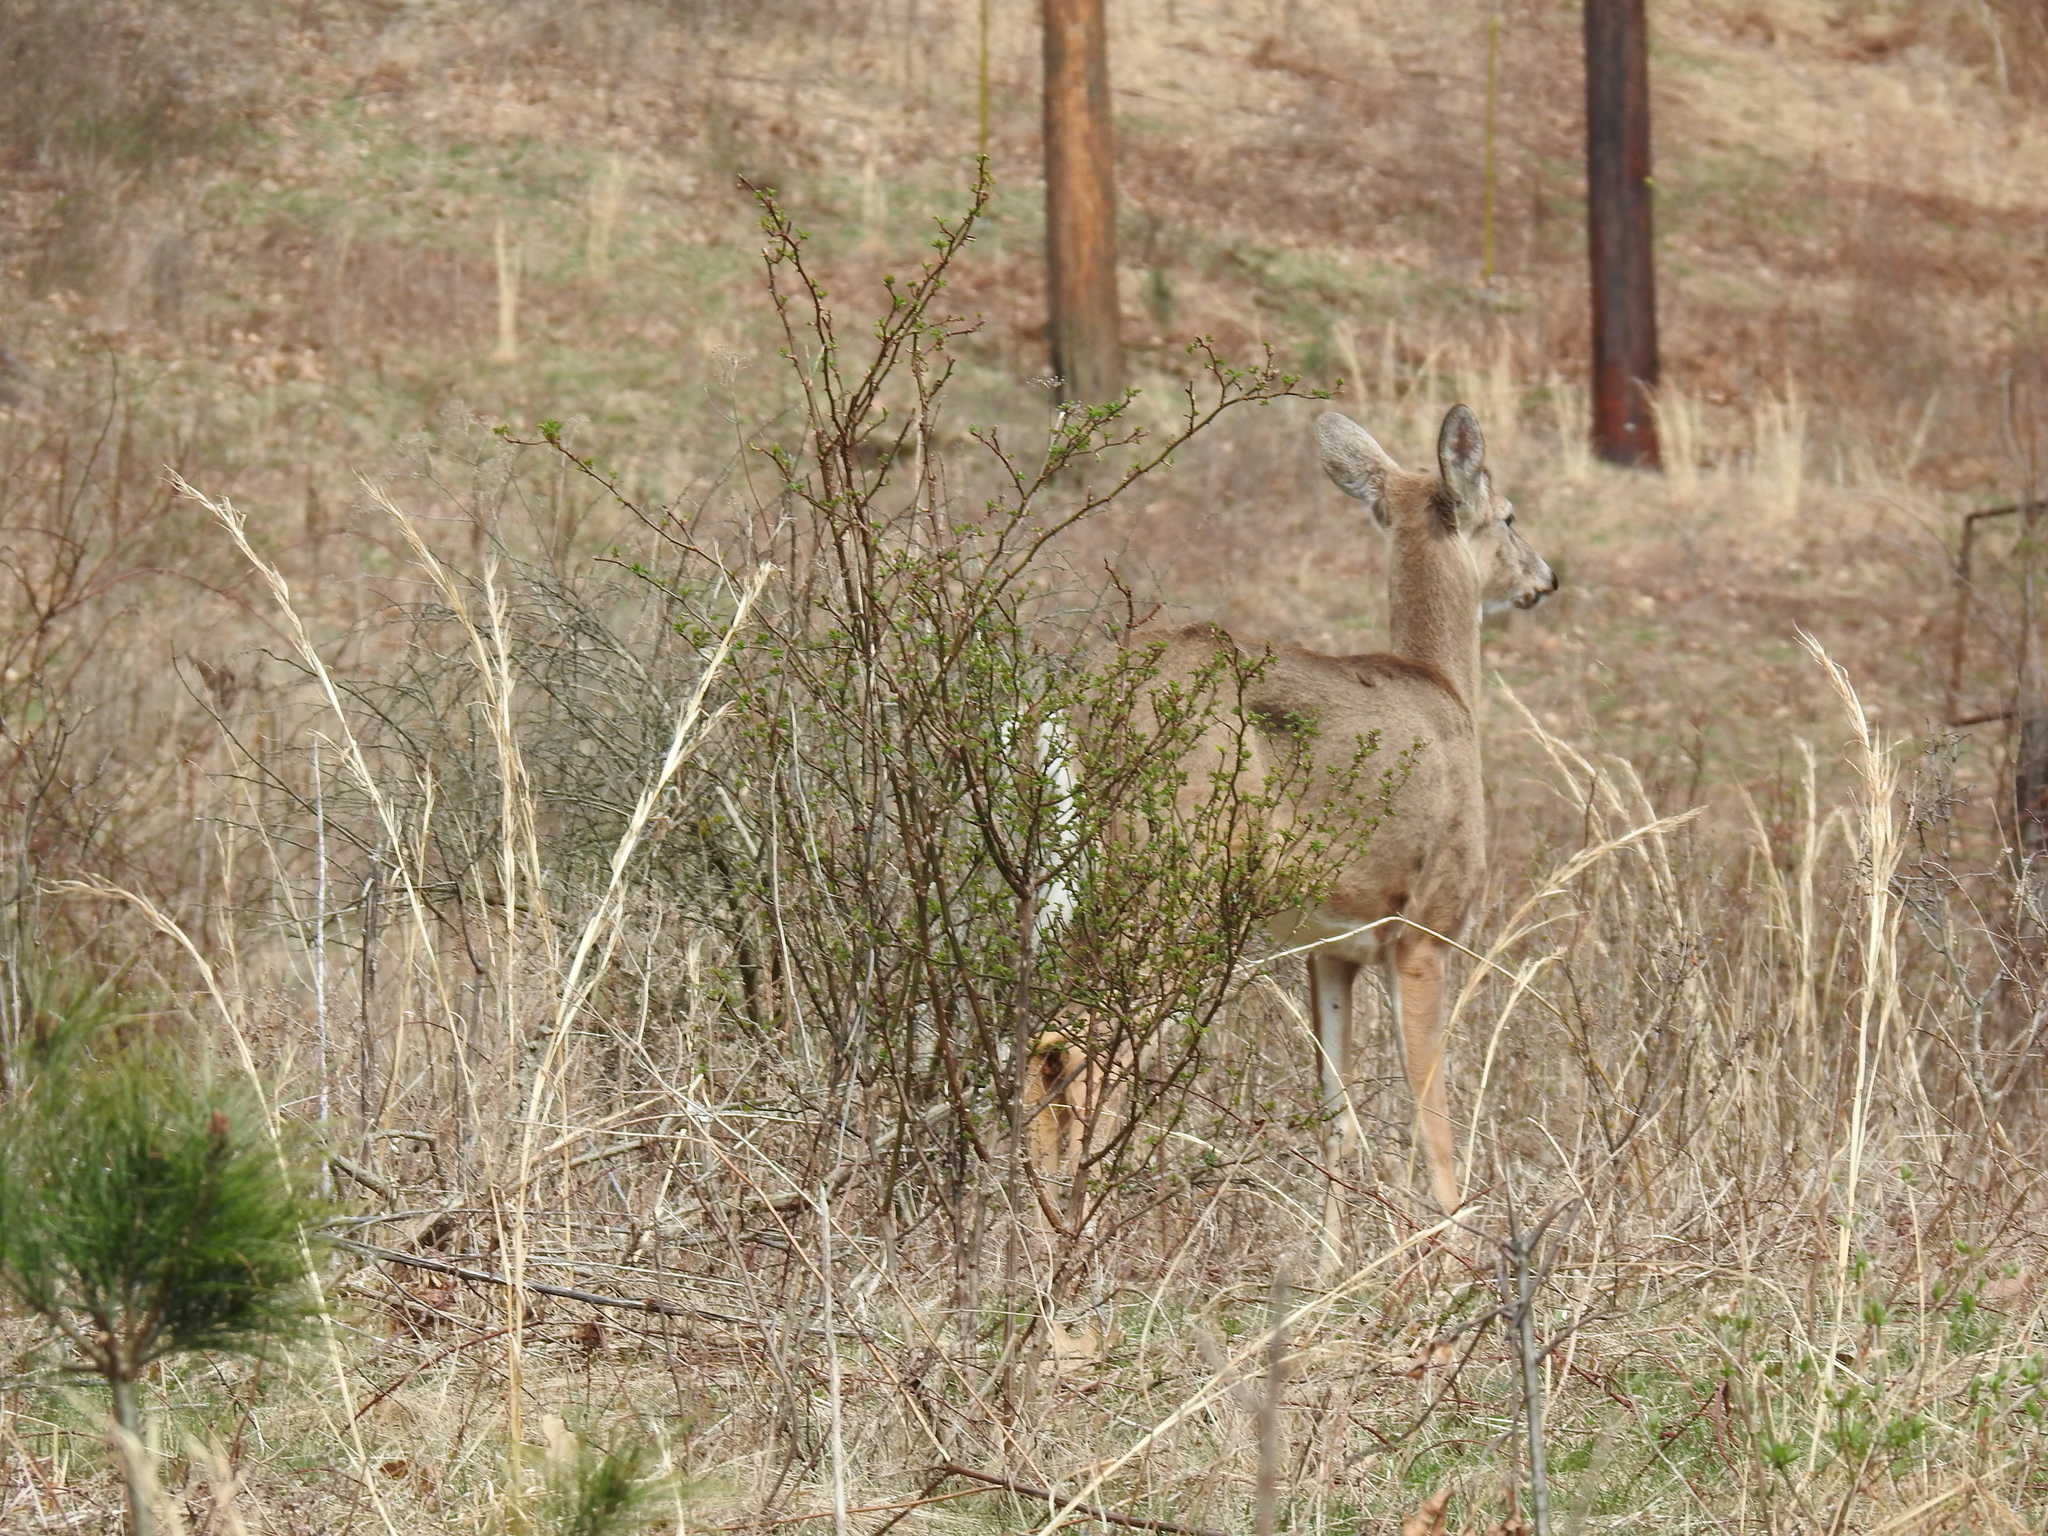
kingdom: Animalia
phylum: Chordata
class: Mammalia
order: Artiodactyla
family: Cervidae
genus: Odocoileus
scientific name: Odocoileus virginianus
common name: White-tailed deer
